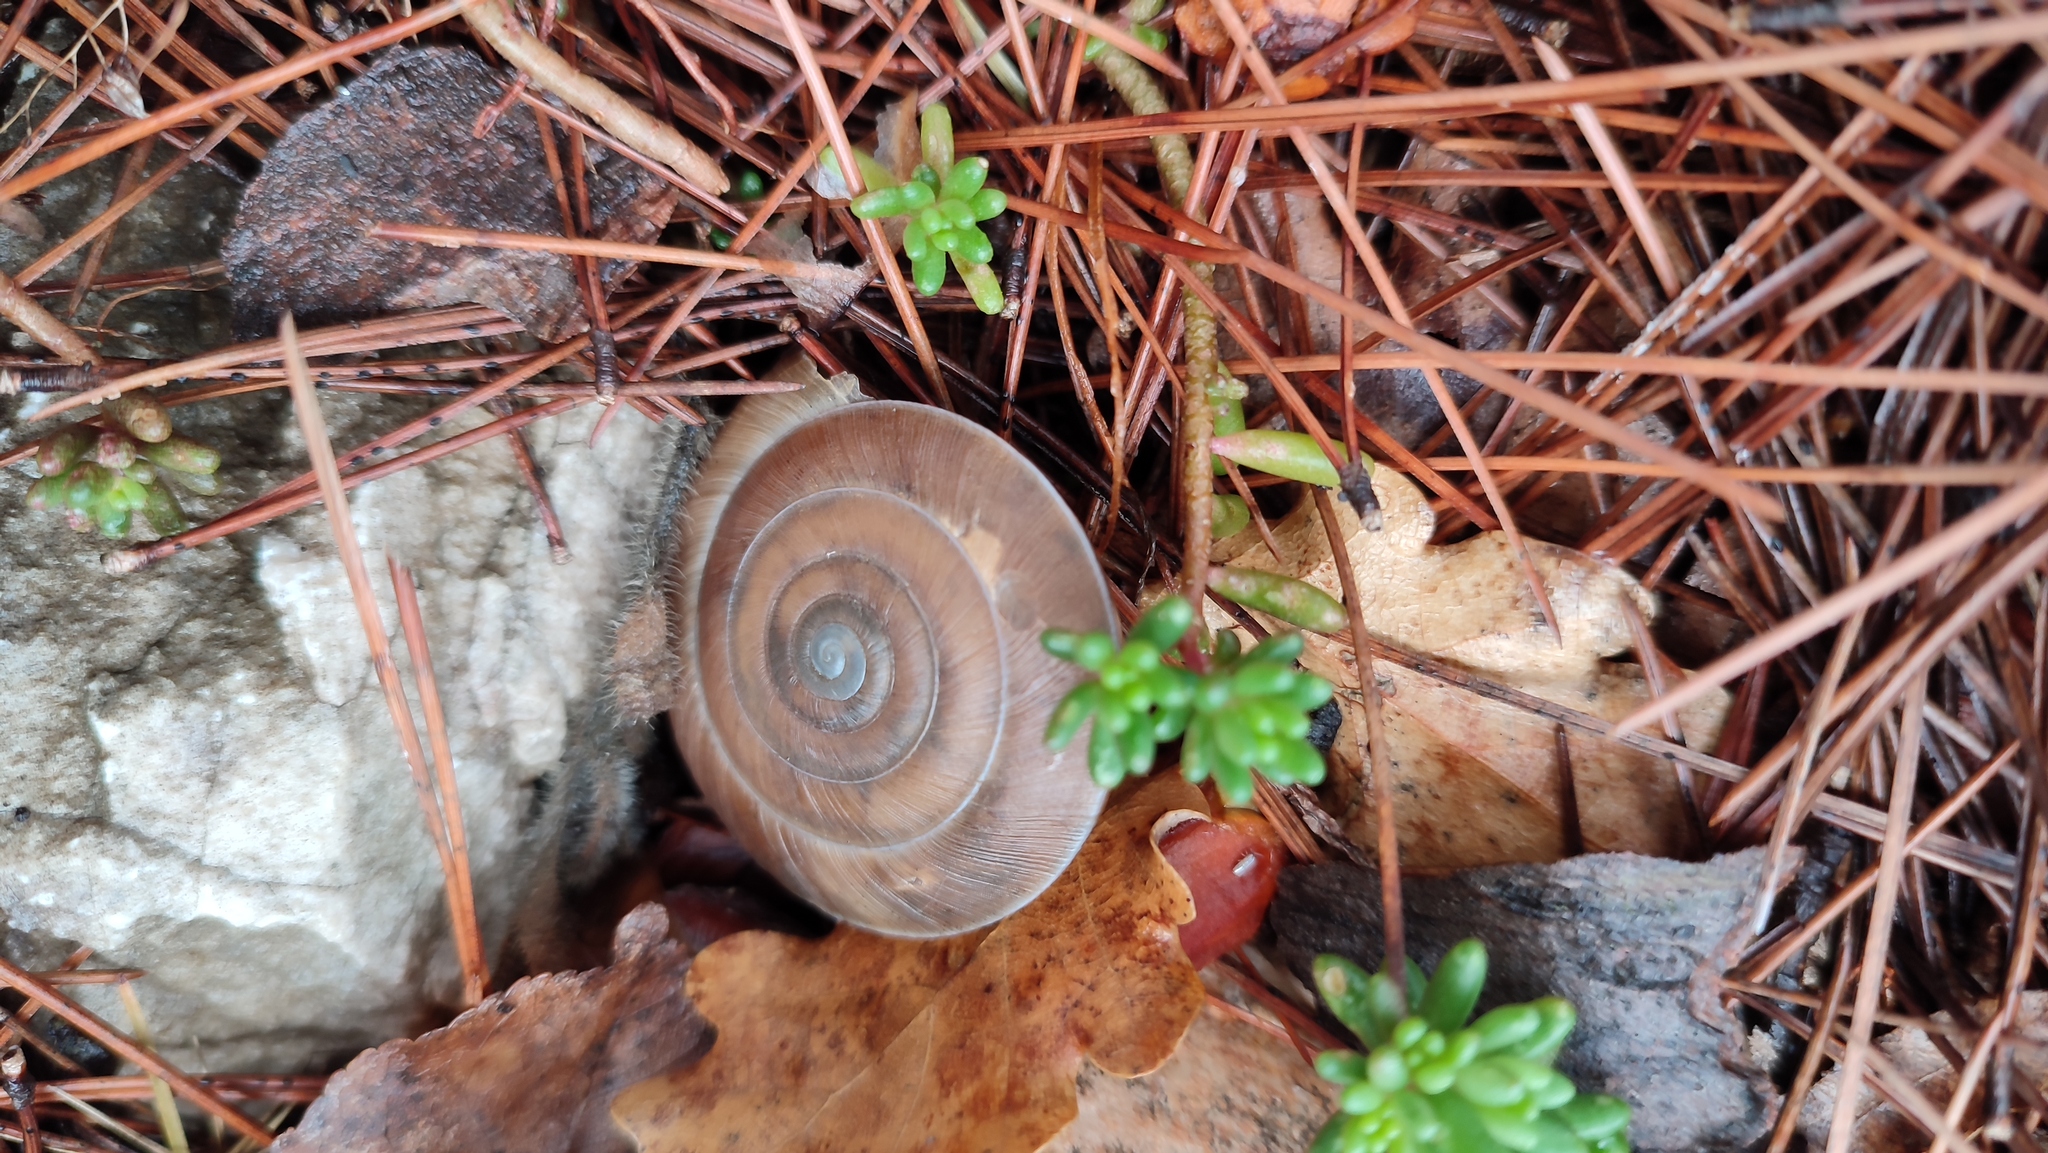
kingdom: Animalia
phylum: Mollusca
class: Gastropoda
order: Stylommatophora
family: Zonitidae
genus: Aegopis
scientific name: Aegopis acies
